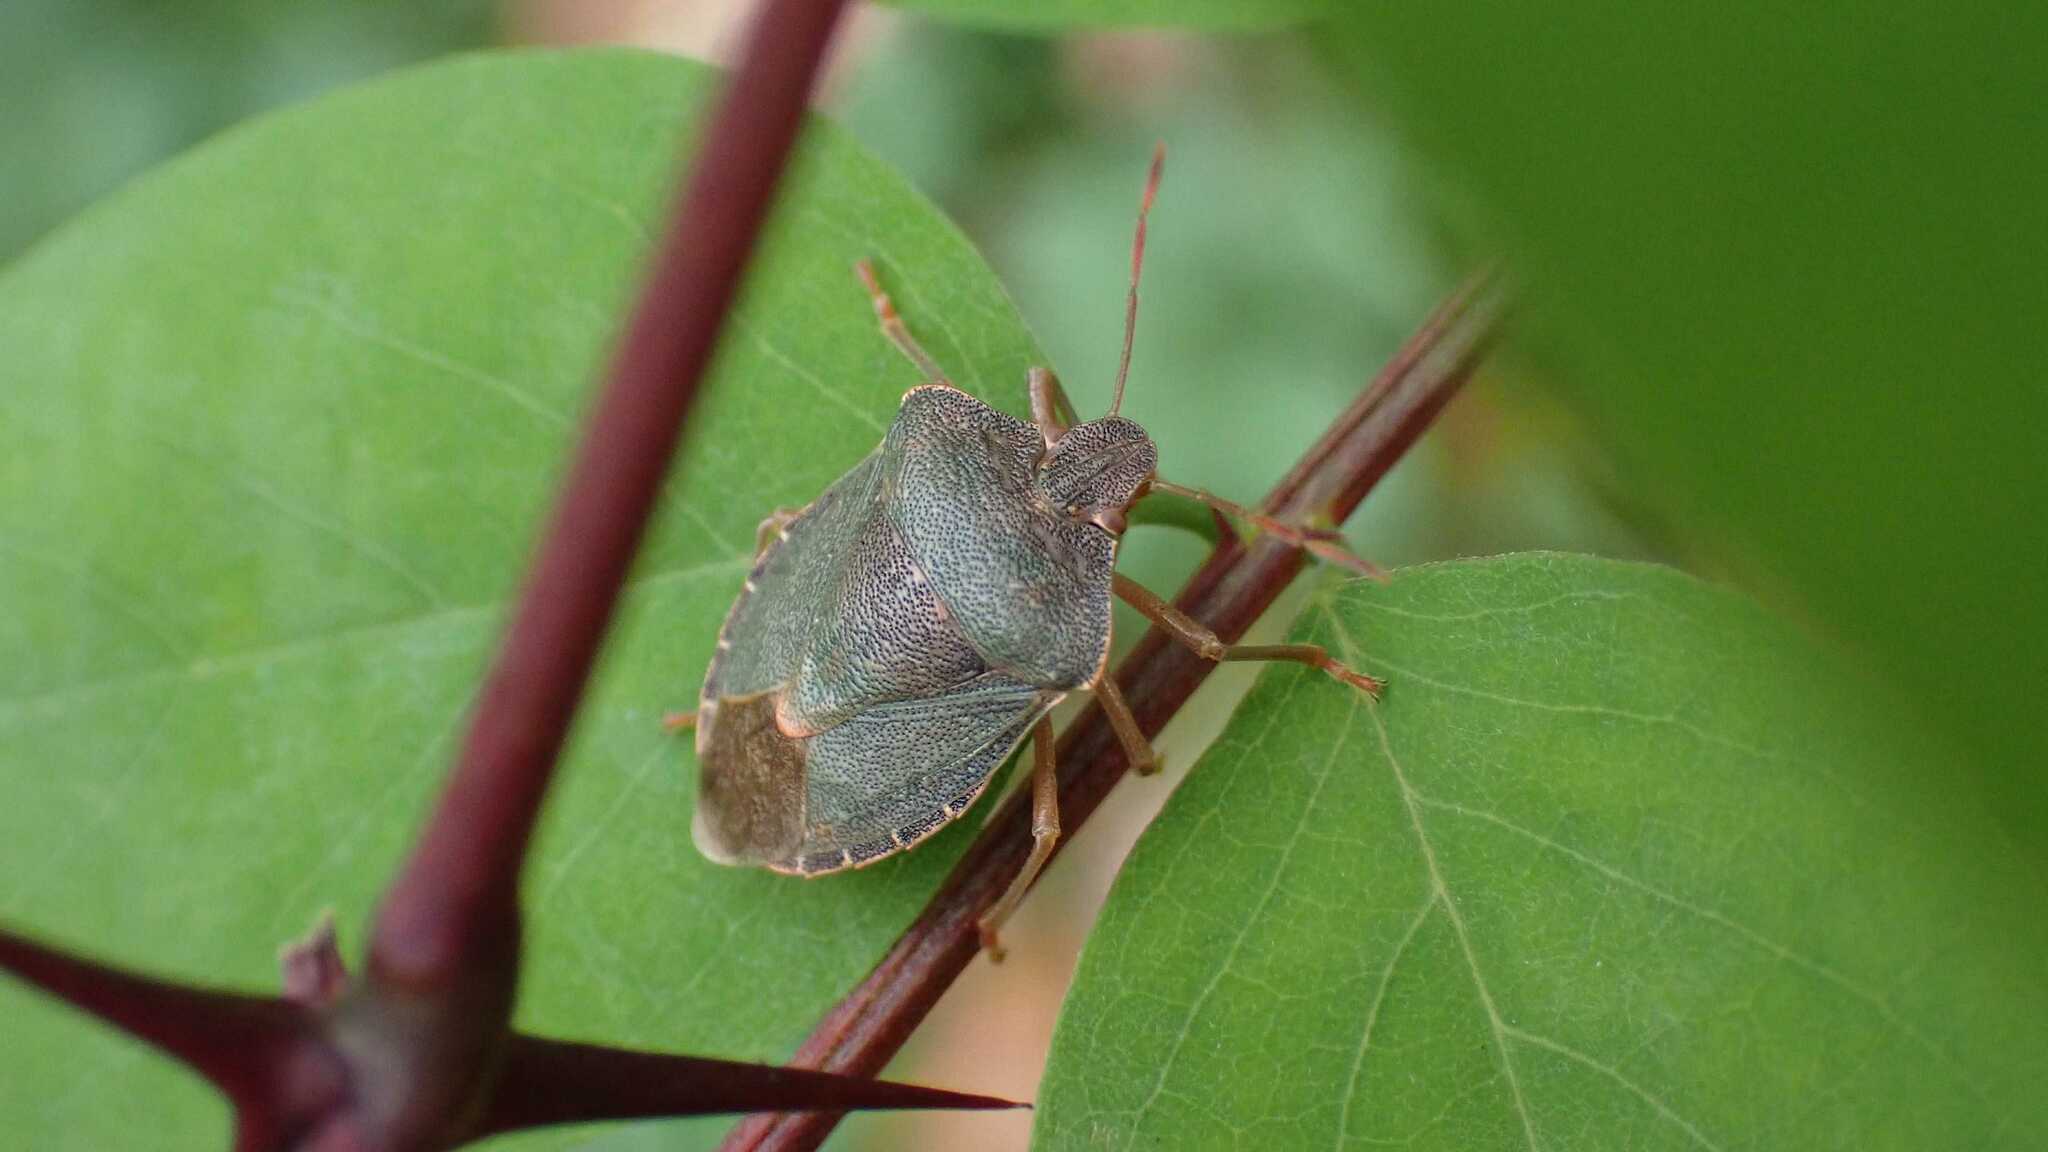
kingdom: Animalia
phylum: Arthropoda
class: Insecta
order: Hemiptera
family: Pentatomidae
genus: Palomena
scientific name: Palomena prasina
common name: Green shieldbug
